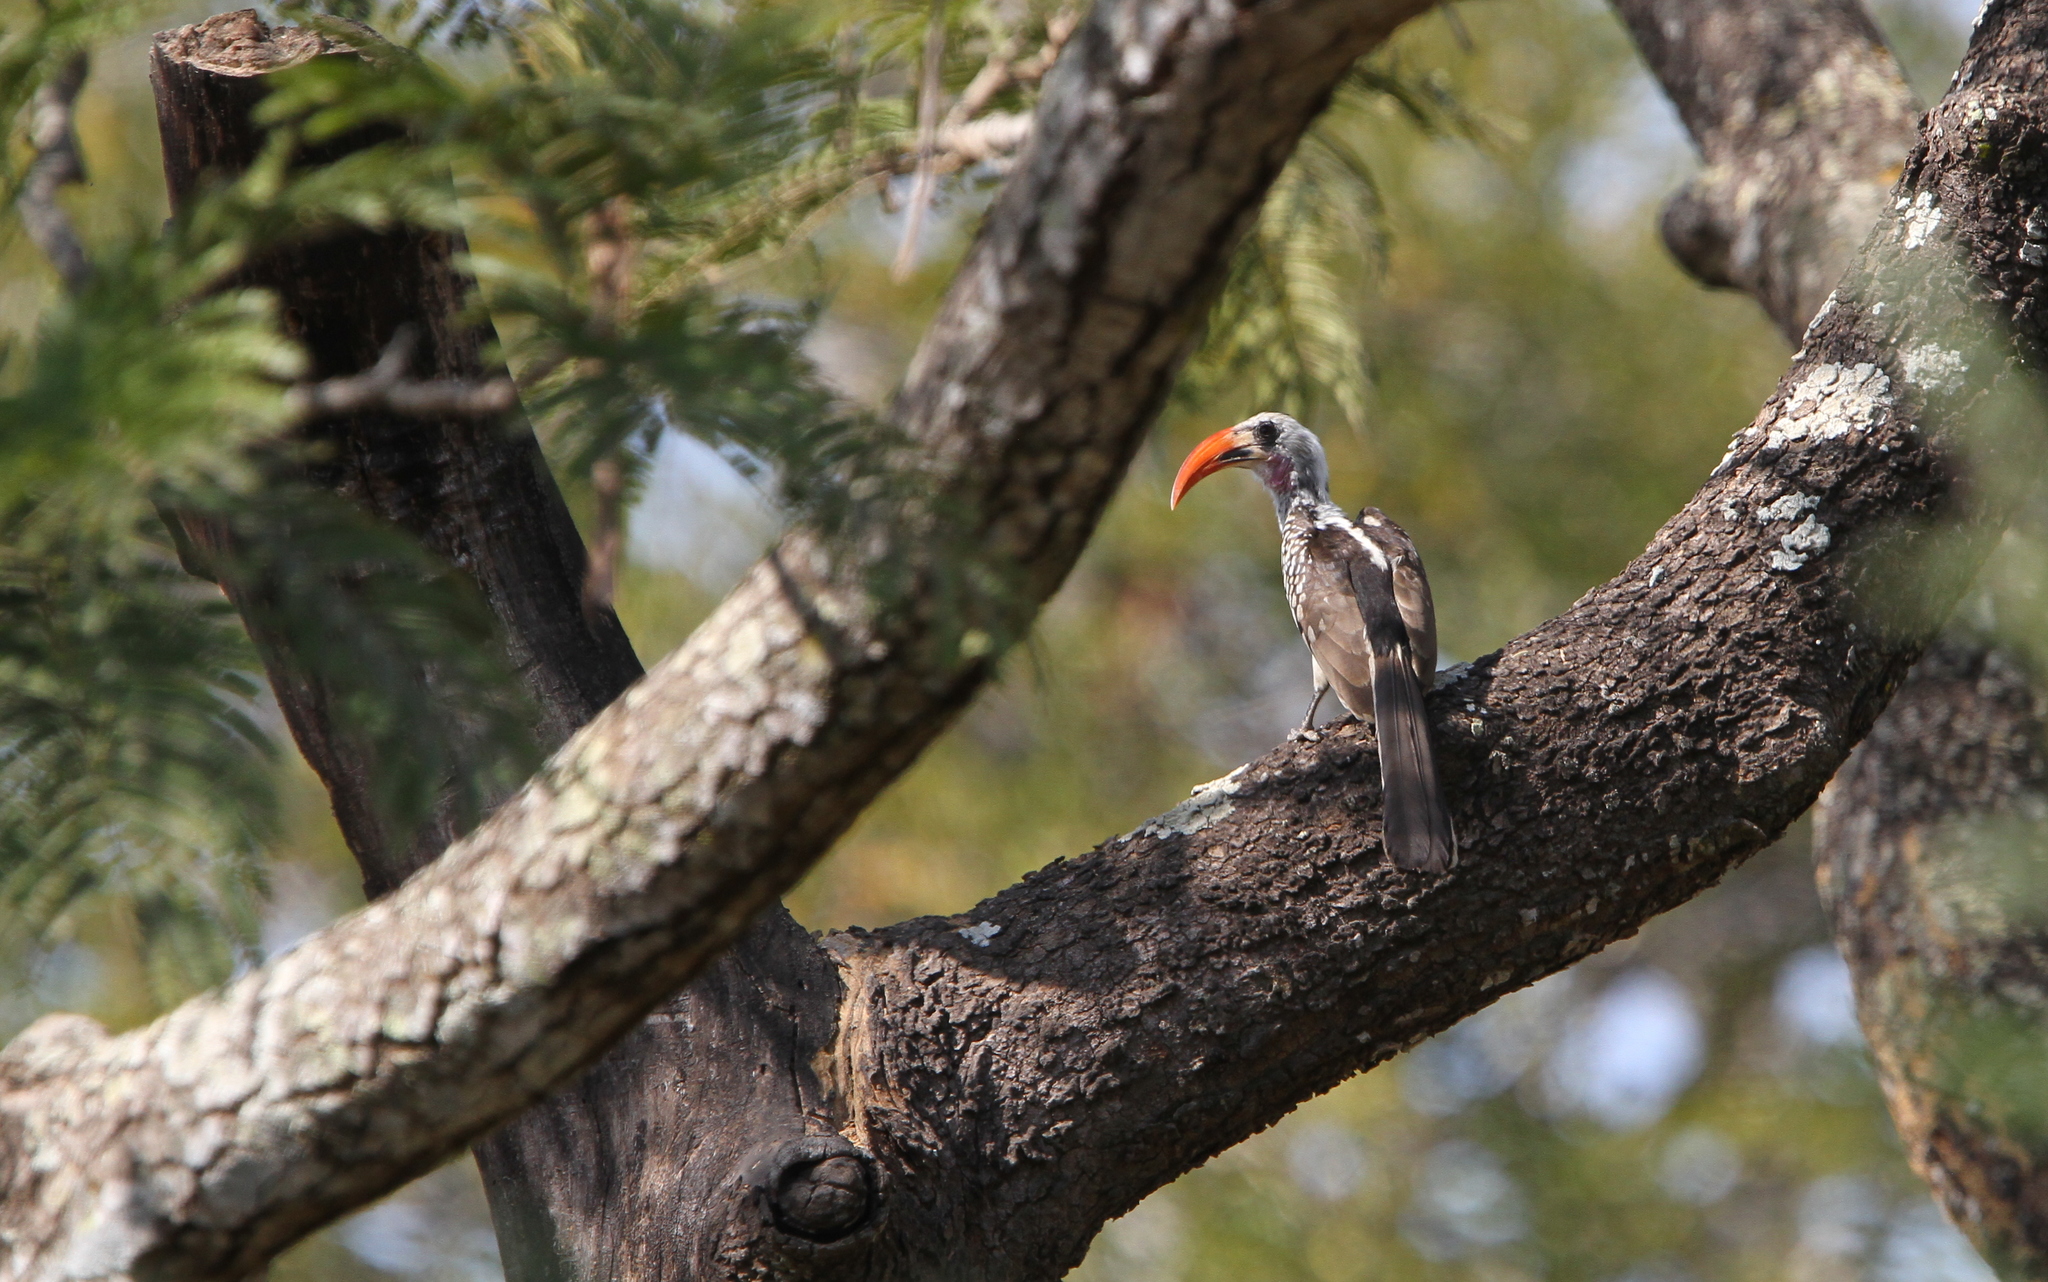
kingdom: Animalia
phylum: Chordata
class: Aves
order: Bucerotiformes
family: Bucerotidae
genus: Tockus
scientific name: Tockus kempi
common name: Western red-billed hornbill
